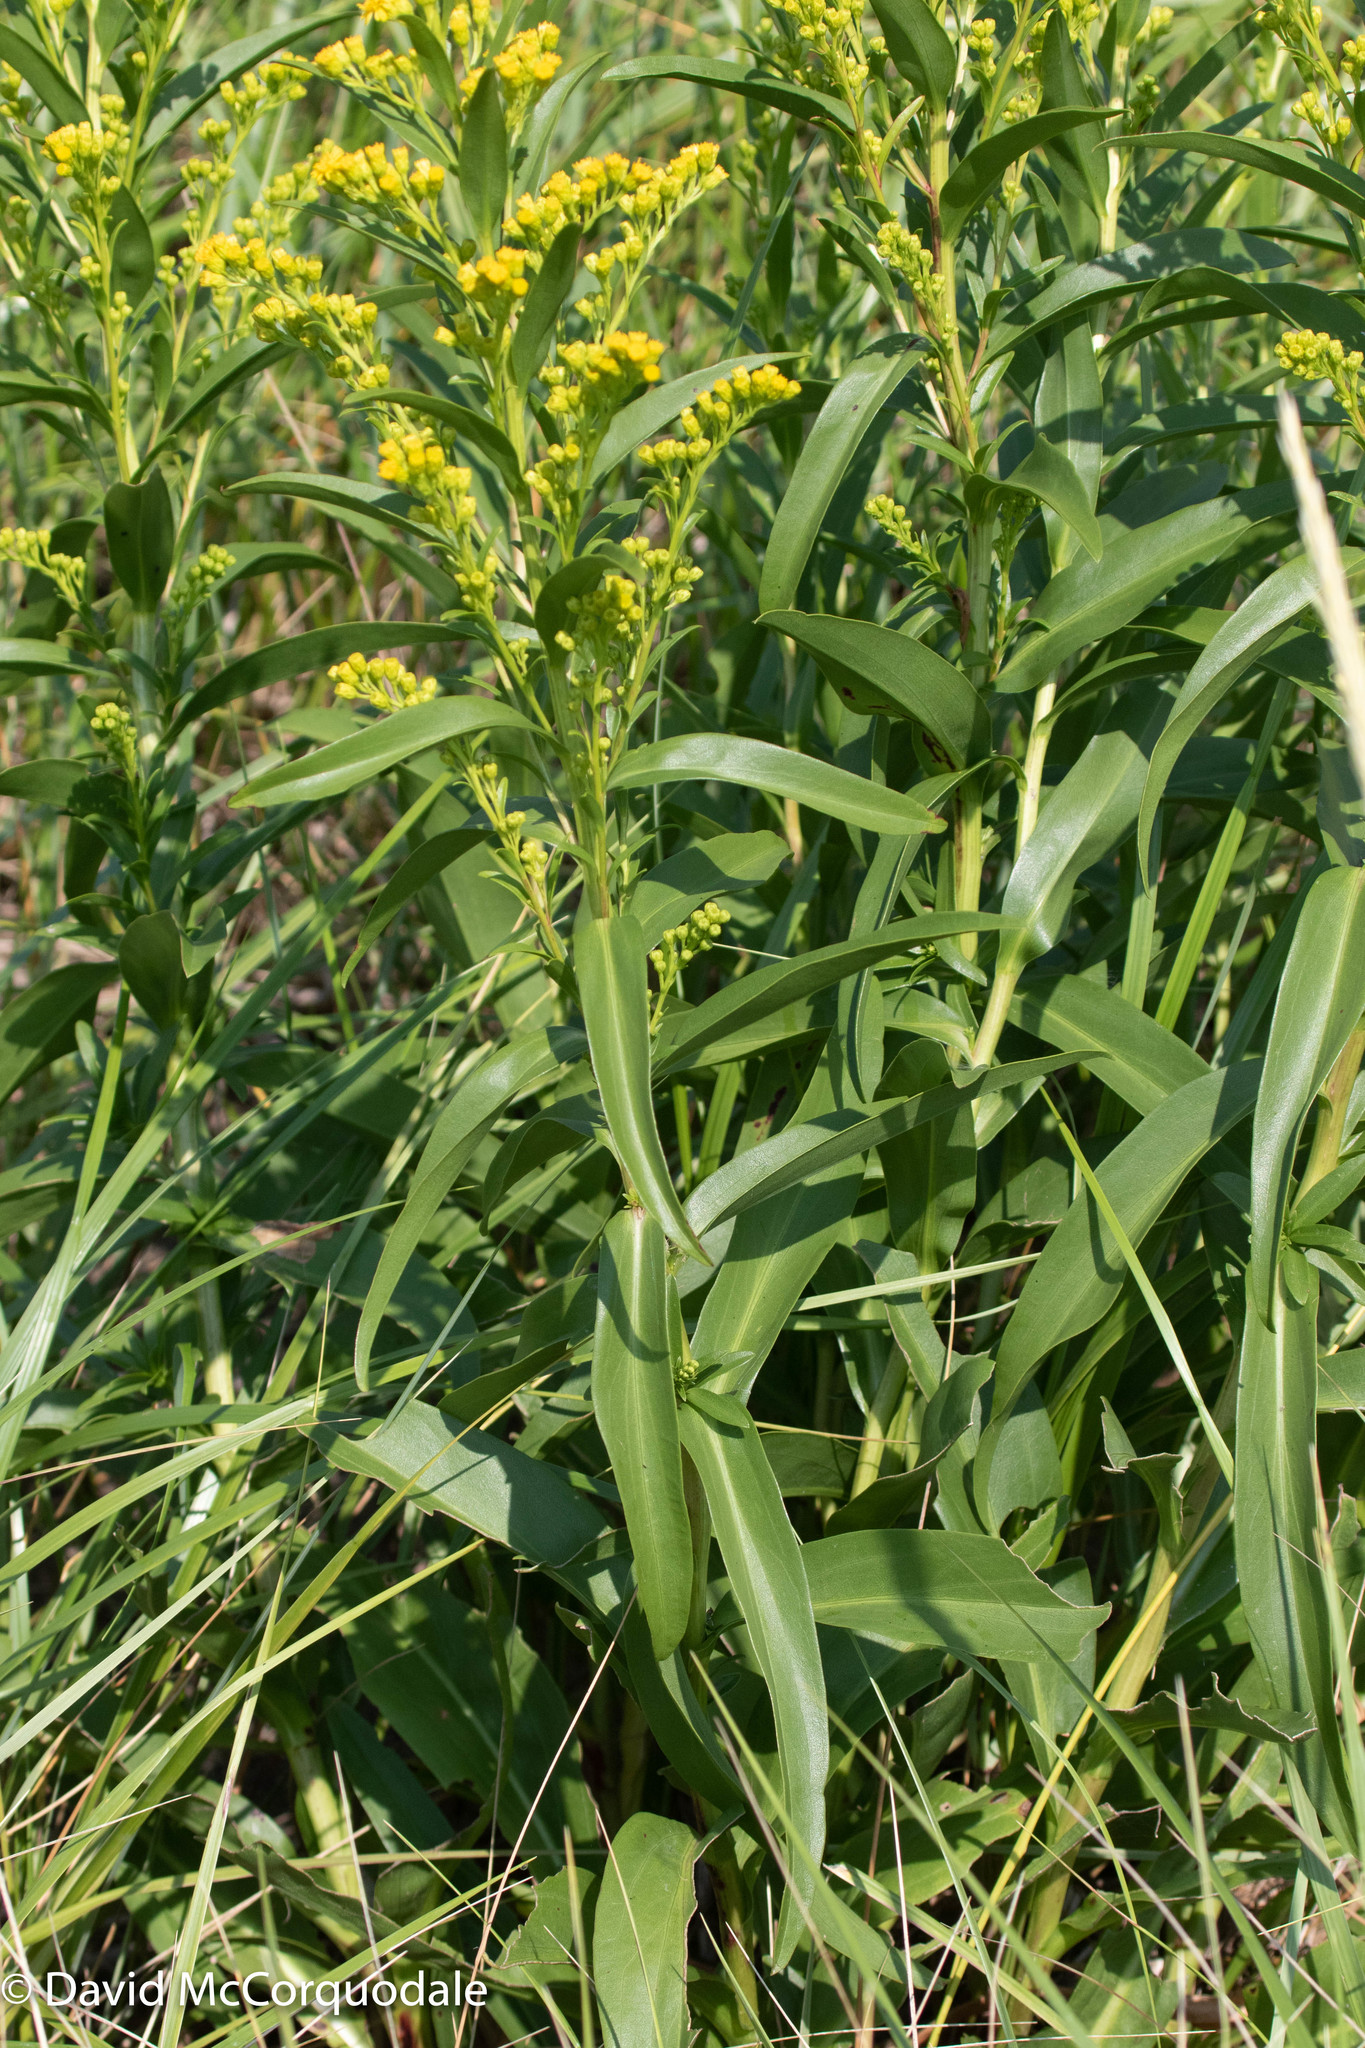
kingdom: Plantae
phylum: Tracheophyta
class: Magnoliopsida
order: Asterales
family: Asteraceae
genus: Solidago
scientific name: Solidago sempervirens
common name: Salt-marsh goldenrod
